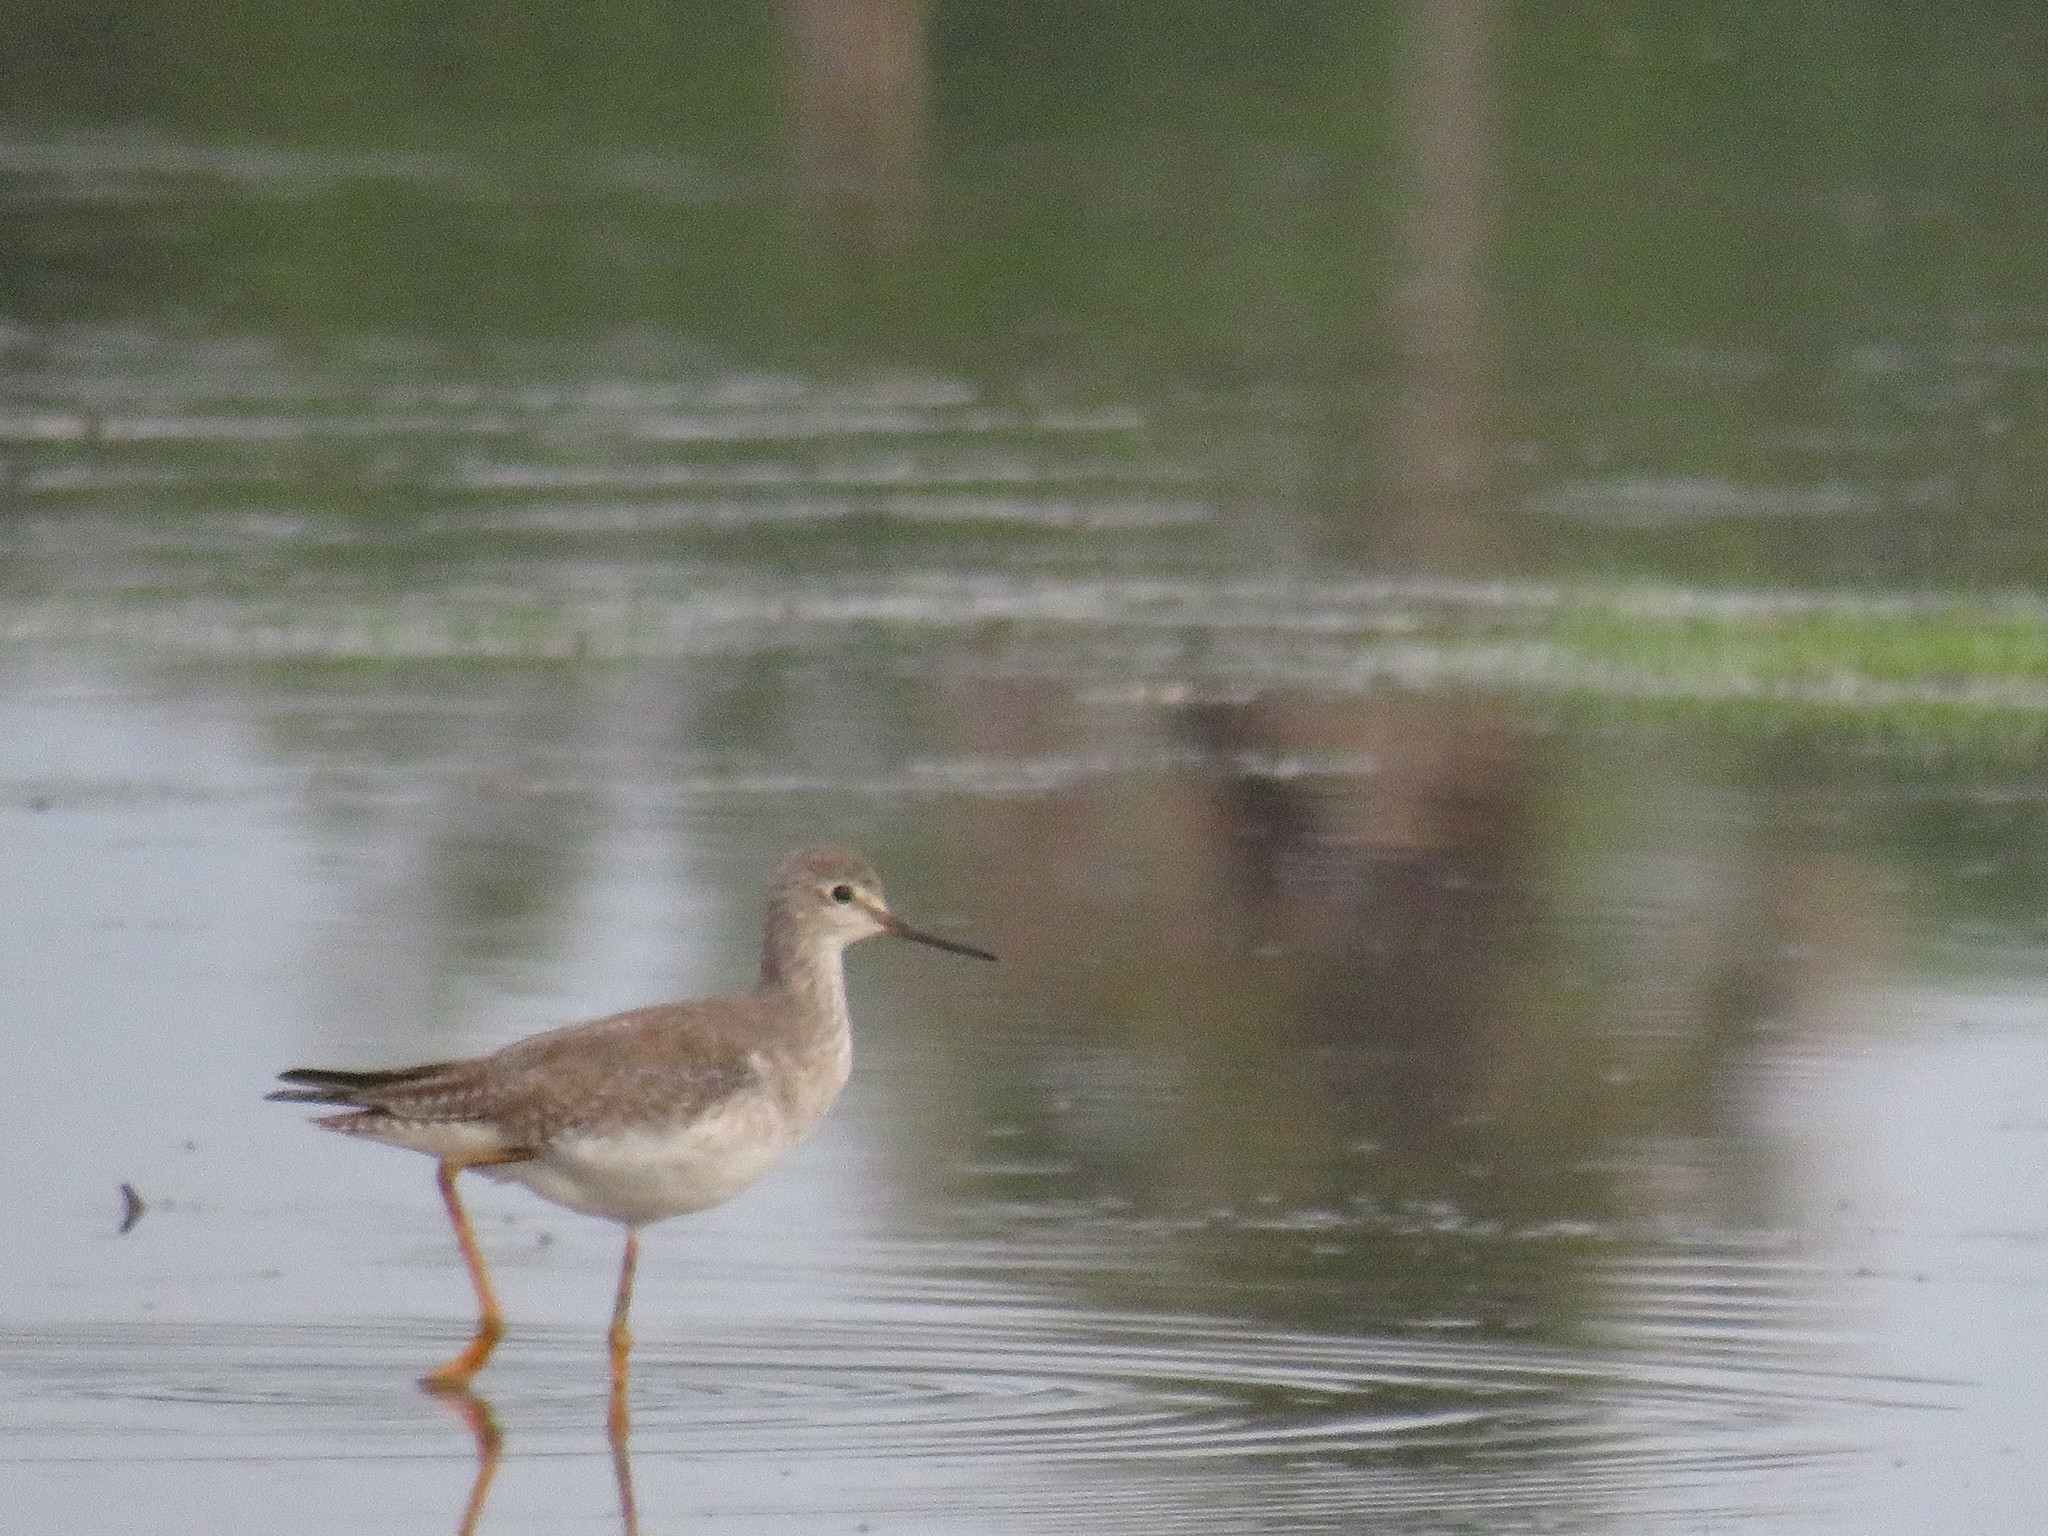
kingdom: Animalia
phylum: Chordata
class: Aves
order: Charadriiformes
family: Scolopacidae
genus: Tringa
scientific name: Tringa flavipes
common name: Lesser yellowlegs
